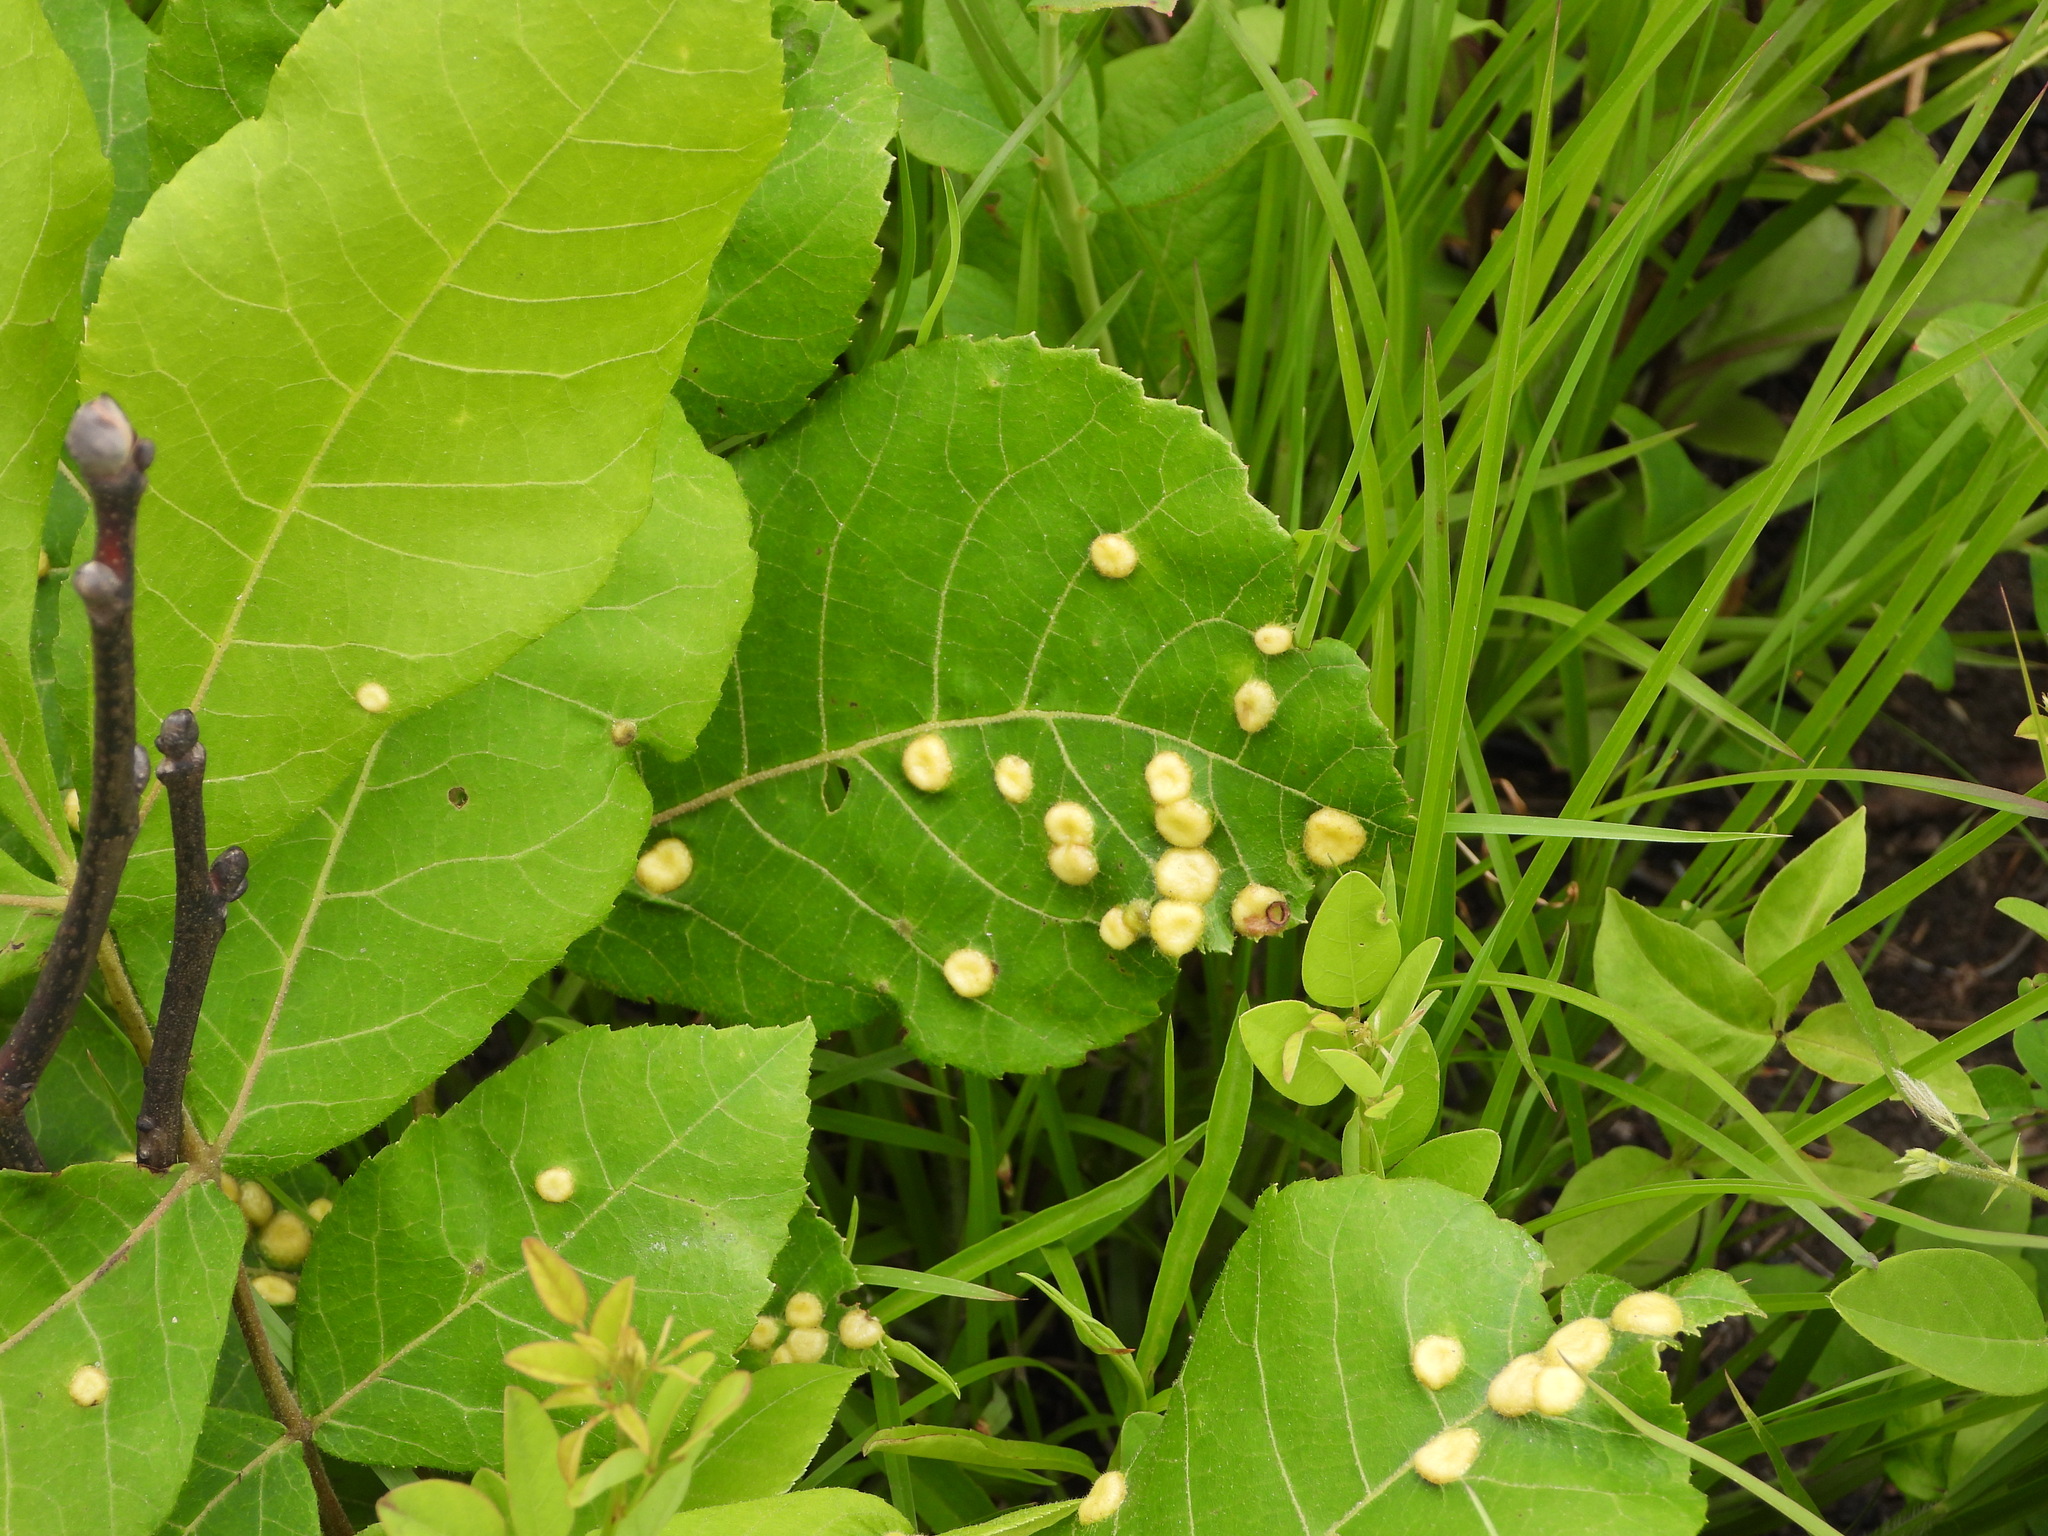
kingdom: Plantae
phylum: Tracheophyta
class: Magnoliopsida
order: Fagales
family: Juglandaceae
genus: Carya
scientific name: Carya alba
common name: Mockernut hickory
